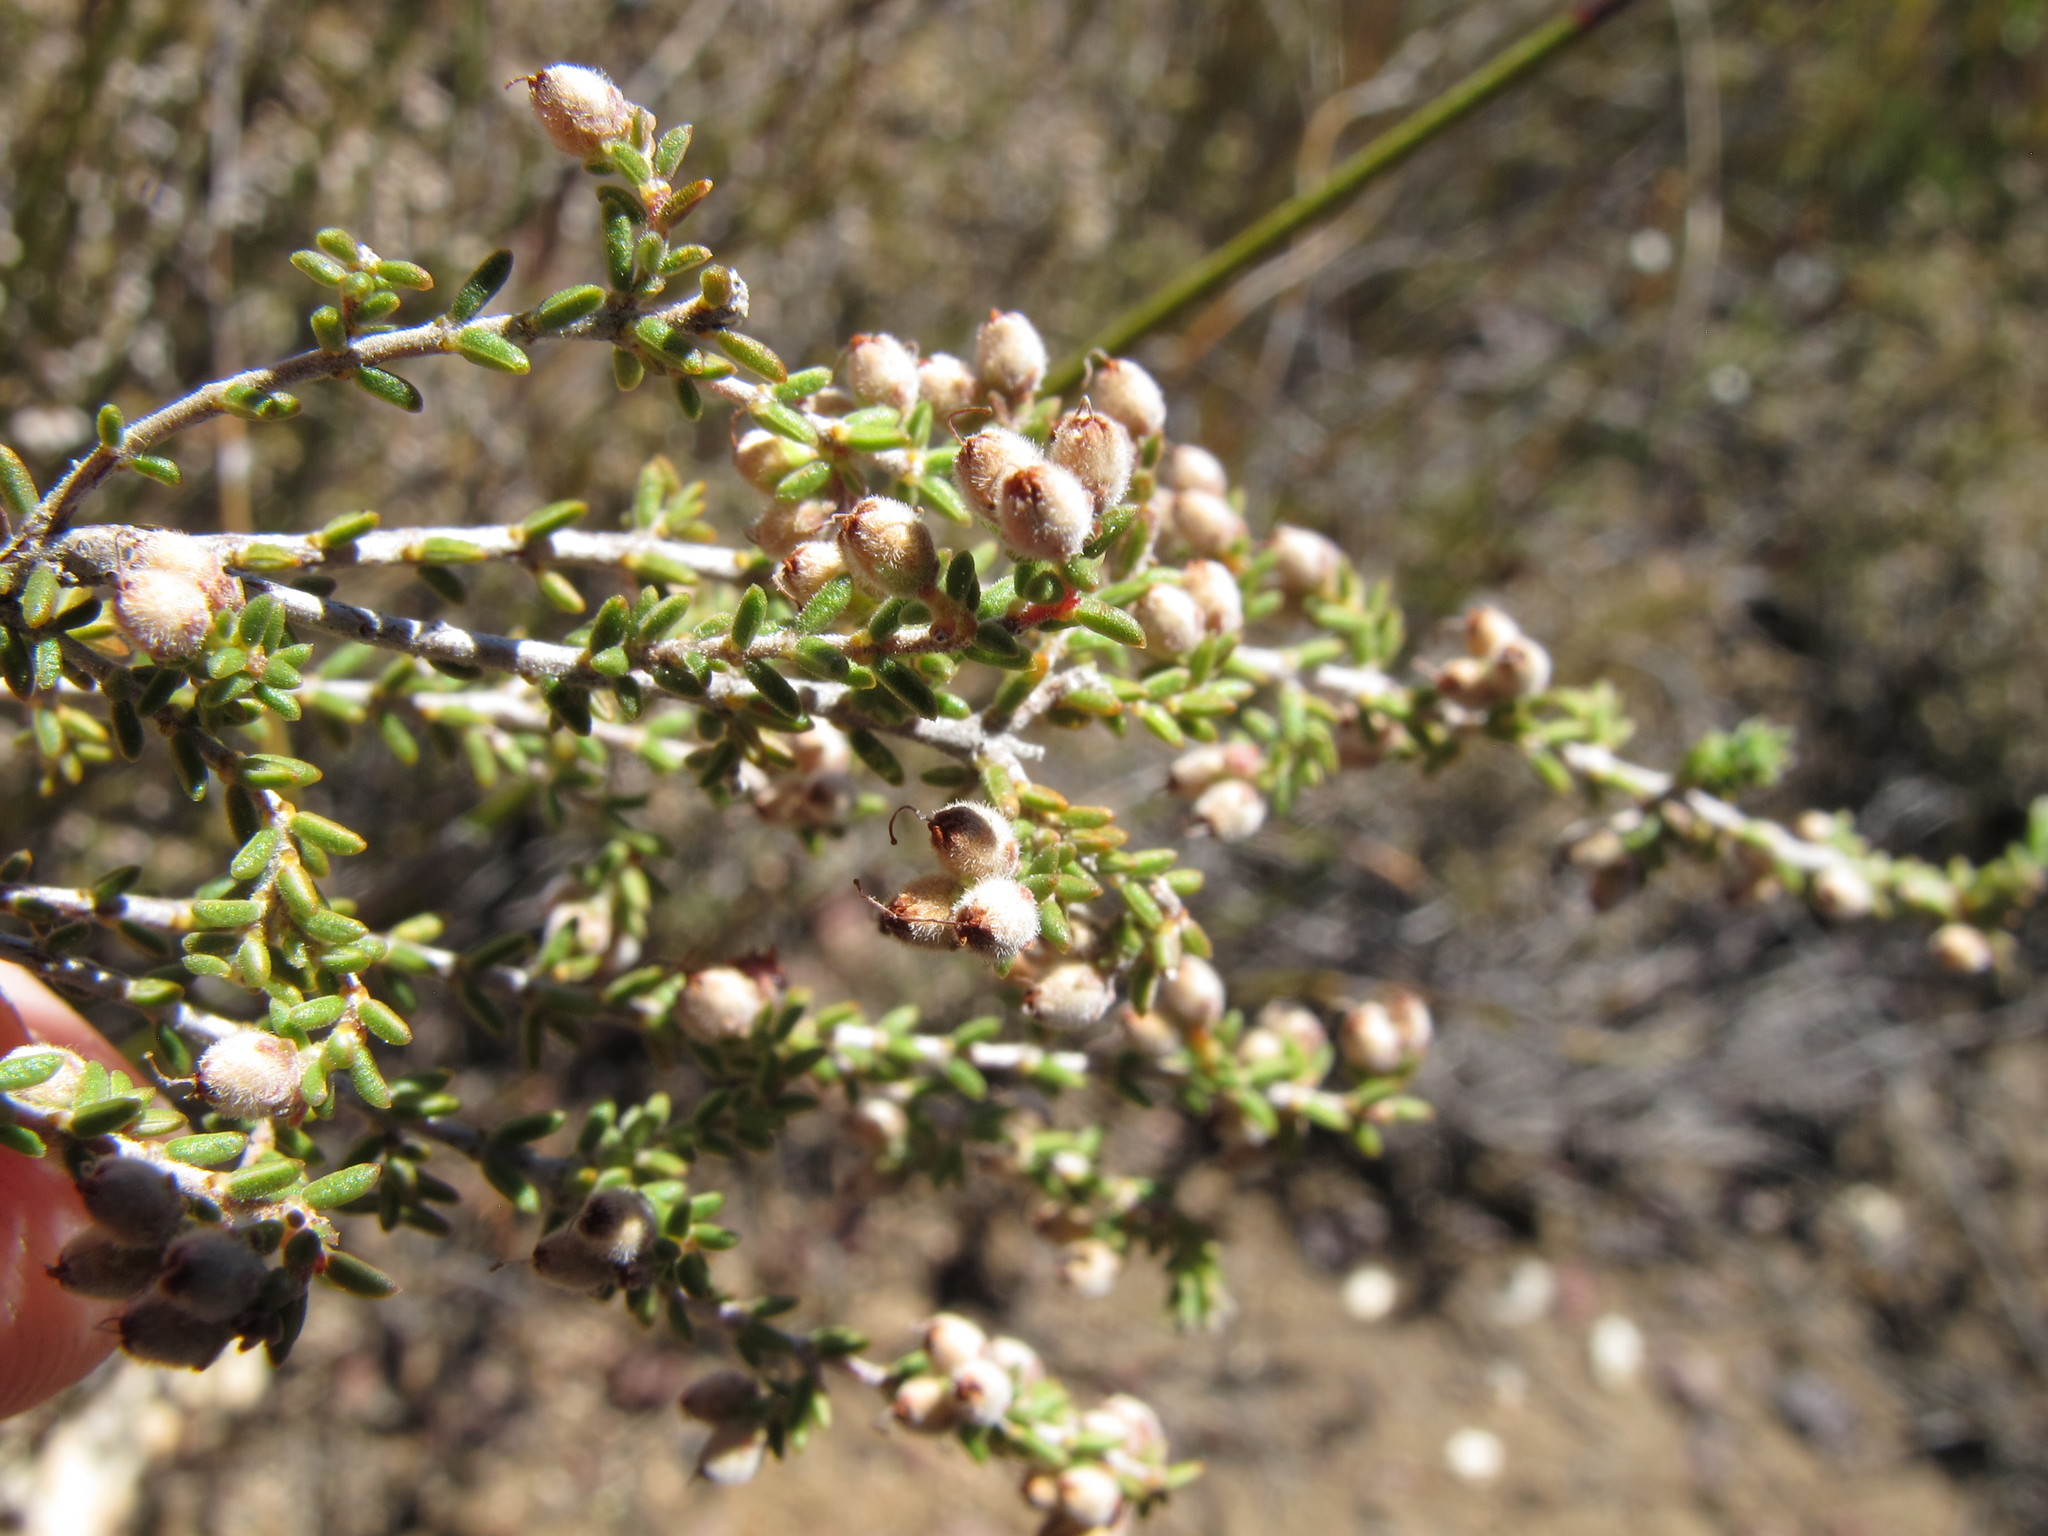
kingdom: Plantae
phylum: Tracheophyta
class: Magnoliopsida
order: Ericales
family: Ericaceae
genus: Erica
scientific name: Erica eremioides
